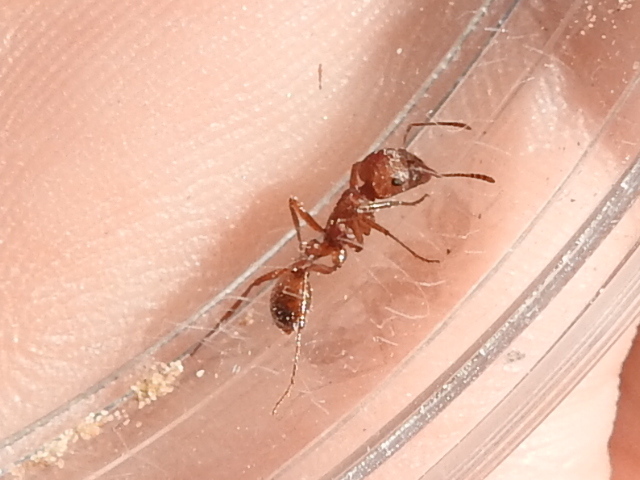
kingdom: Animalia
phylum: Arthropoda
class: Insecta
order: Hymenoptera
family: Formicidae
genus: Pogonomyrmex
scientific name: Pogonomyrmex comanche
